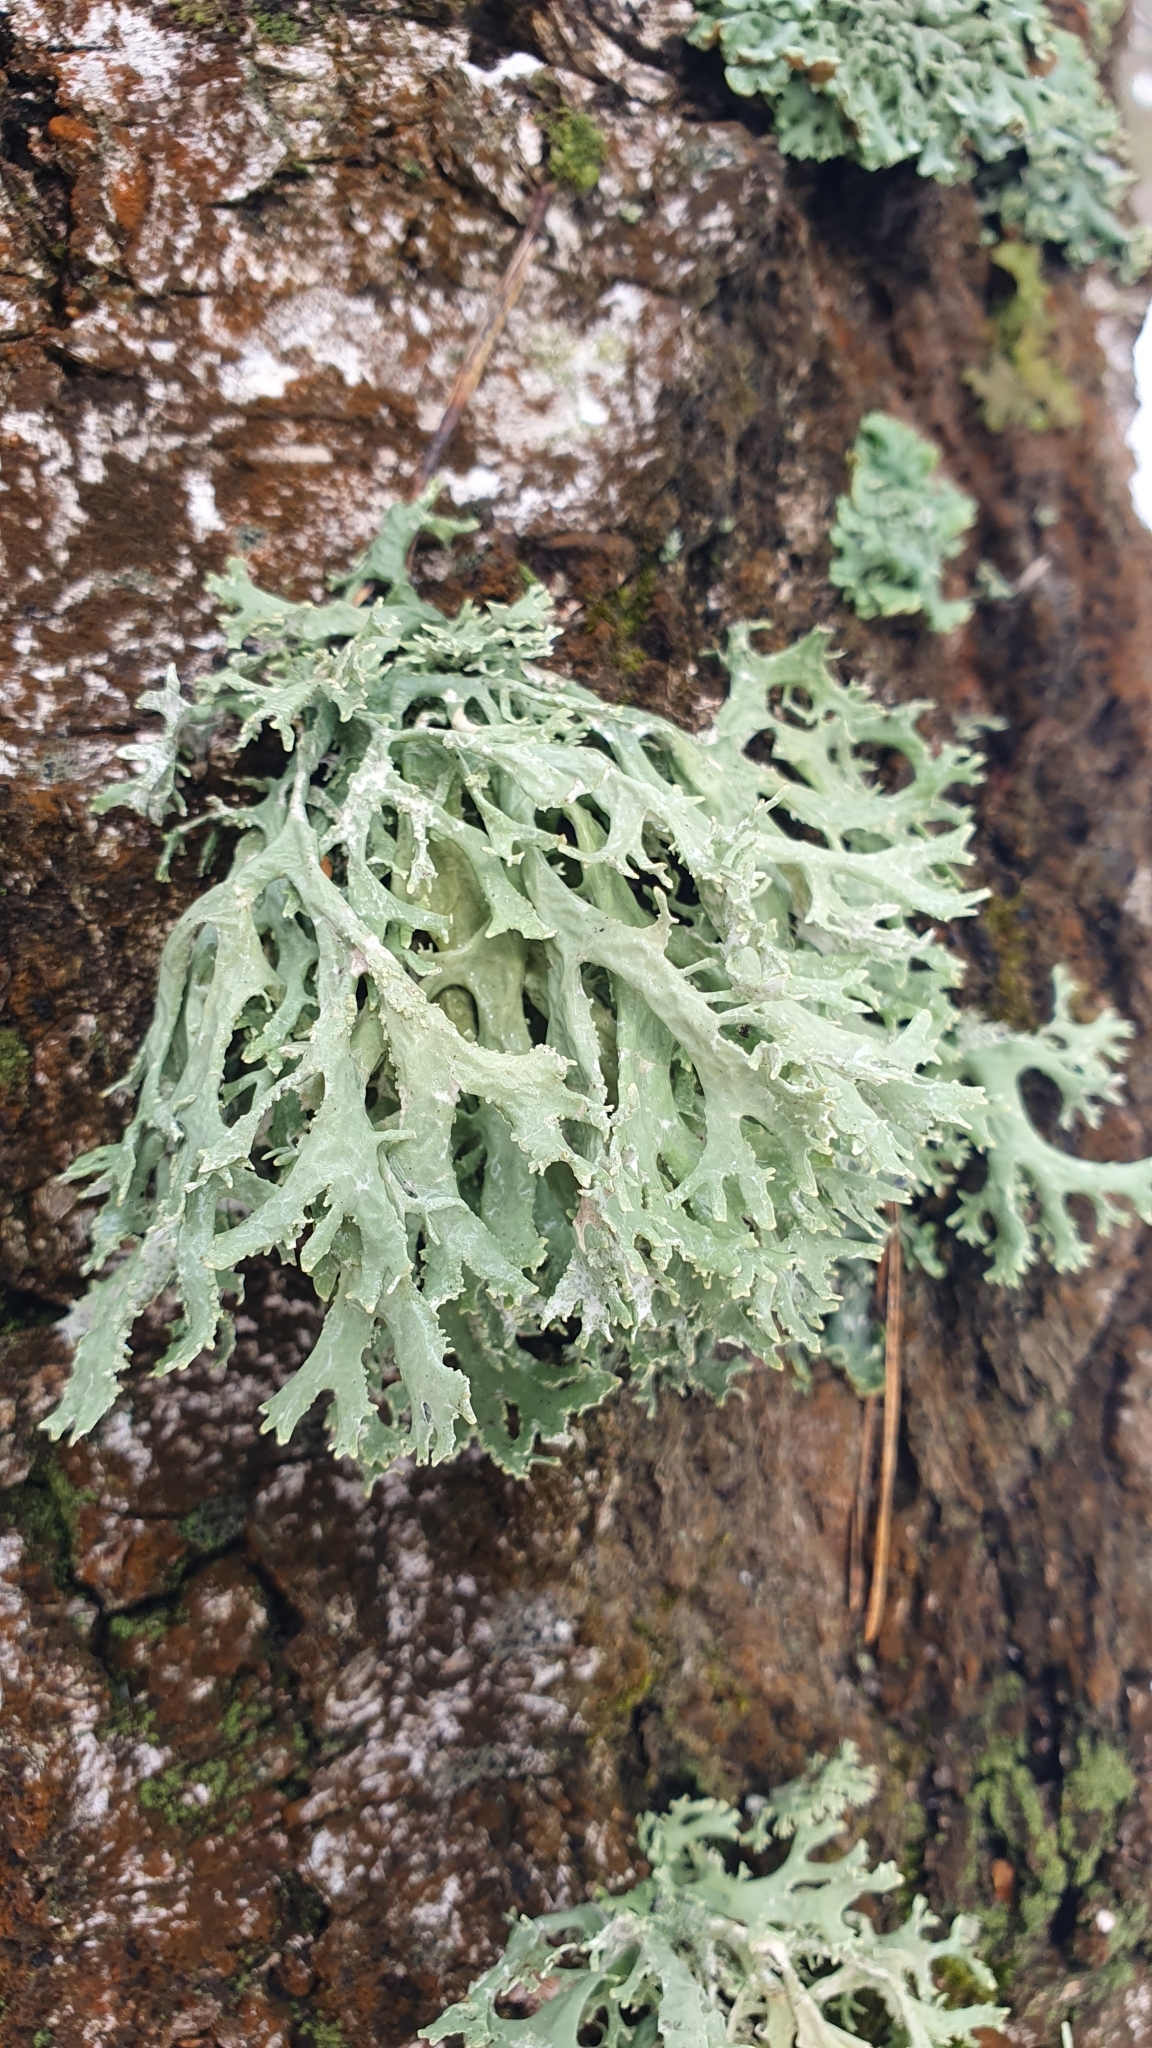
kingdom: Fungi
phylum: Ascomycota
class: Lecanoromycetes
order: Lecanorales
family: Parmeliaceae
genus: Evernia
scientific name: Evernia prunastri
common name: Oak moss
